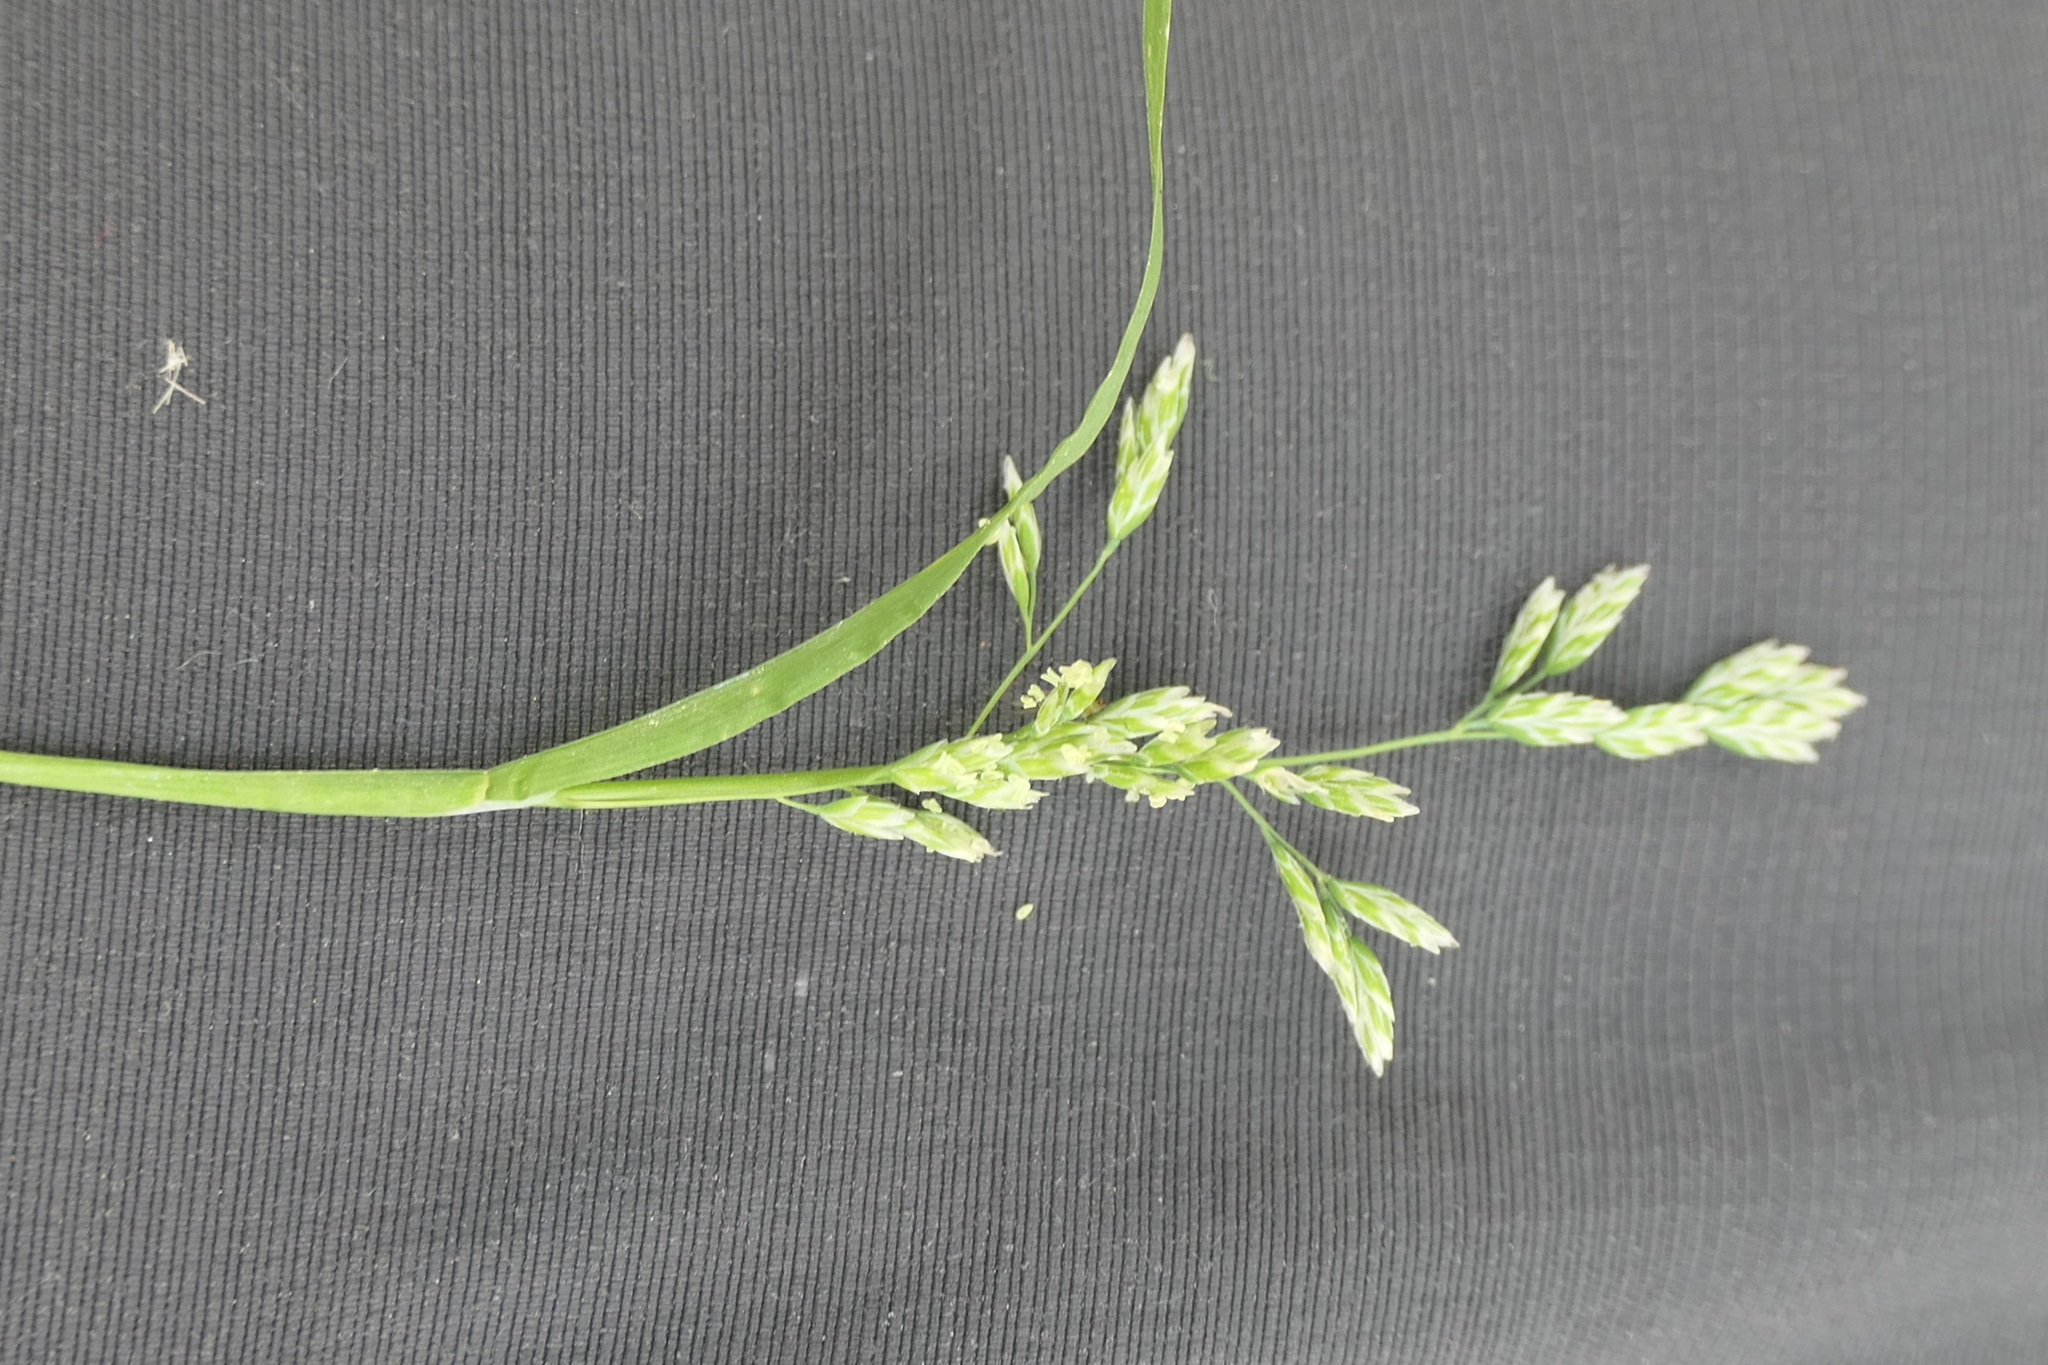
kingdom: Plantae
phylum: Tracheophyta
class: Liliopsida
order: Poales
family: Poaceae
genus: Poa
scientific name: Poa annua
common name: Annual bluegrass
